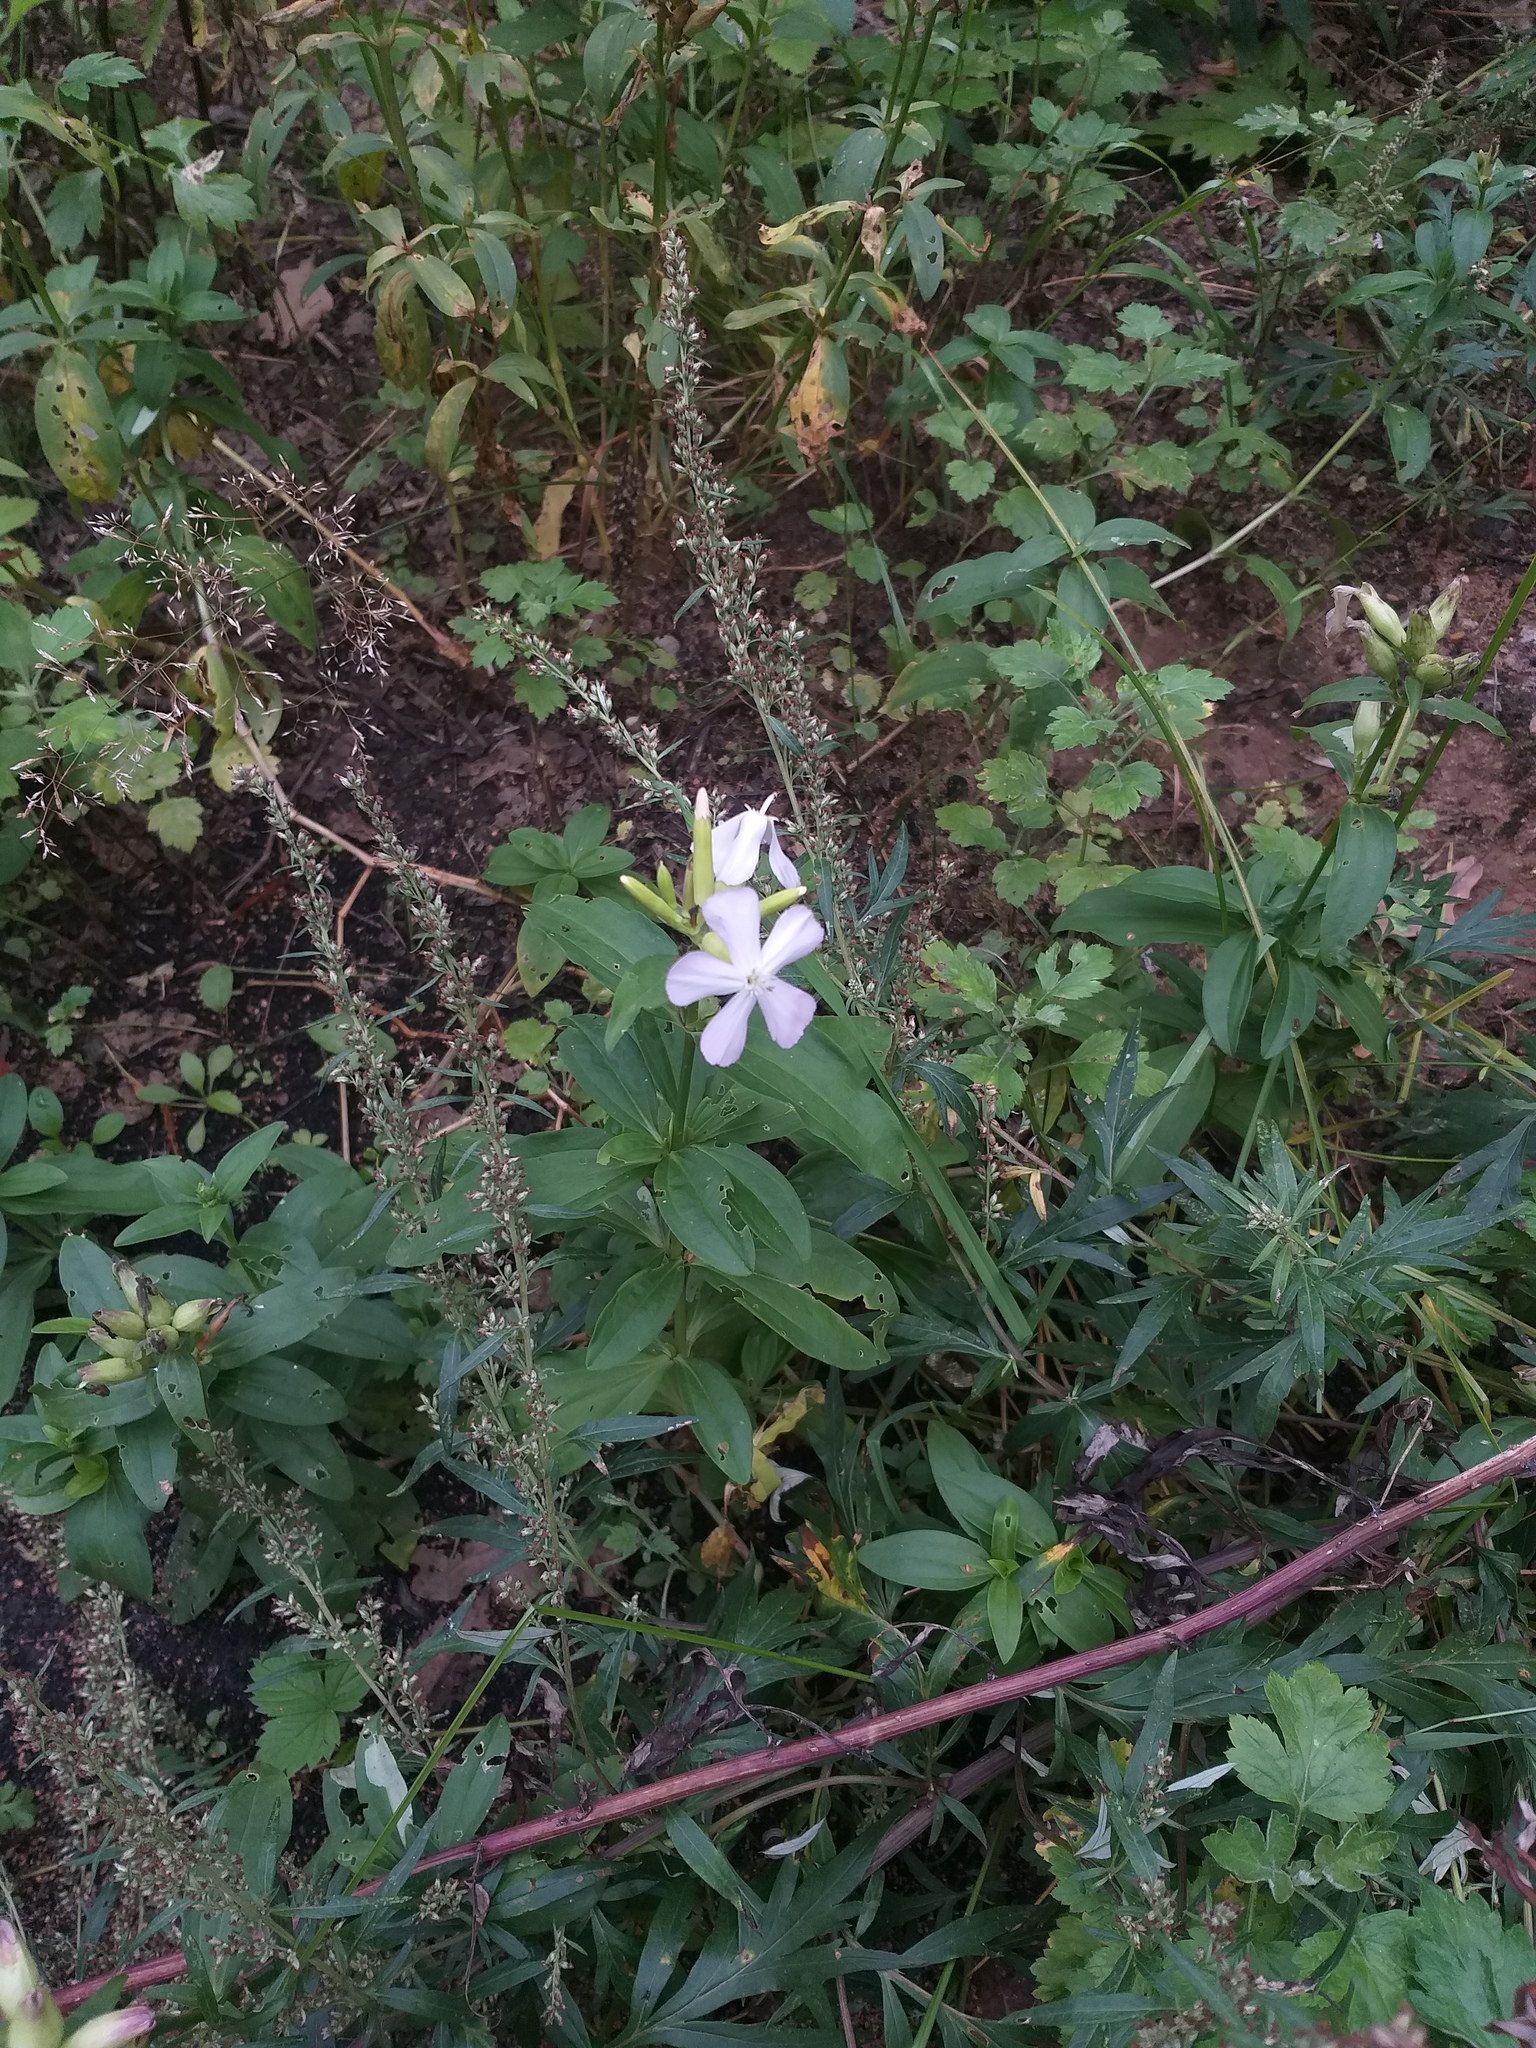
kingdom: Plantae
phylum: Tracheophyta
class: Magnoliopsida
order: Caryophyllales
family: Caryophyllaceae
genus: Saponaria
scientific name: Saponaria officinalis
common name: Soapwort
